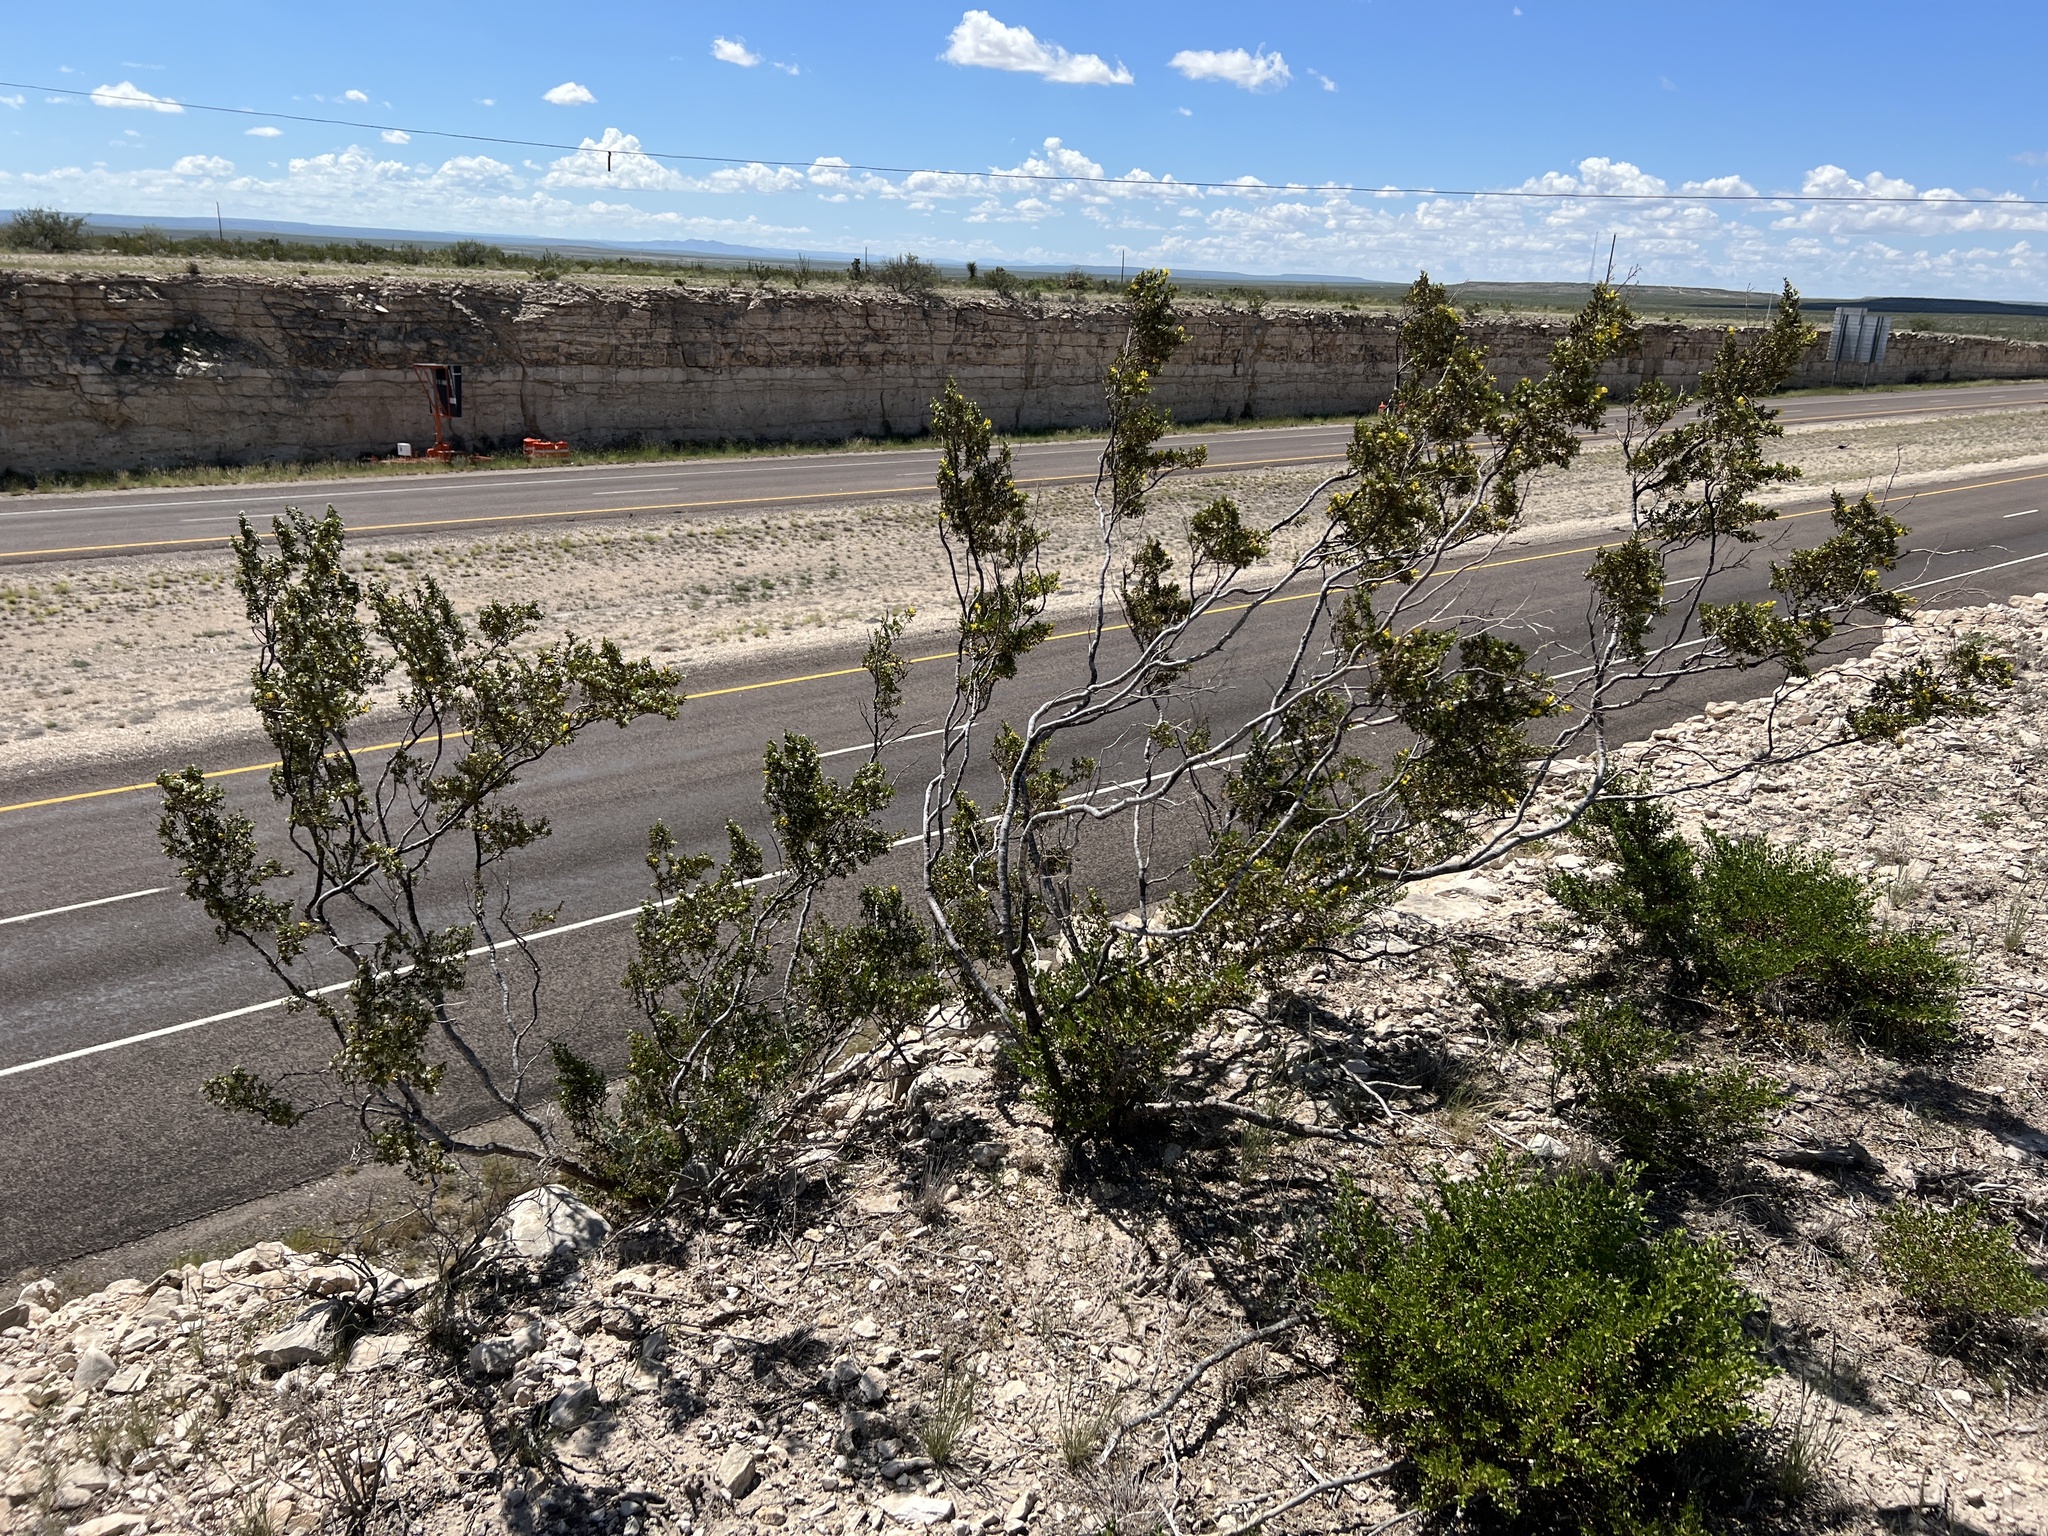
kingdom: Plantae
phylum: Tracheophyta
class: Magnoliopsida
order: Zygophyllales
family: Zygophyllaceae
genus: Larrea
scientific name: Larrea tridentata
